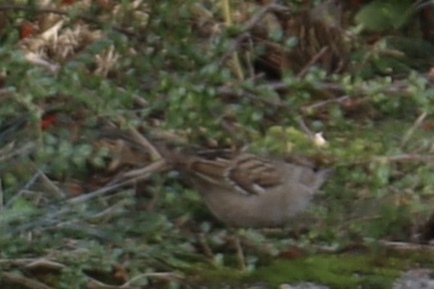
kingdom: Animalia
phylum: Chordata
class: Aves
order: Passeriformes
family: Passerellidae
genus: Zonotrichia
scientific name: Zonotrichia atricapilla
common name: Golden-crowned sparrow
